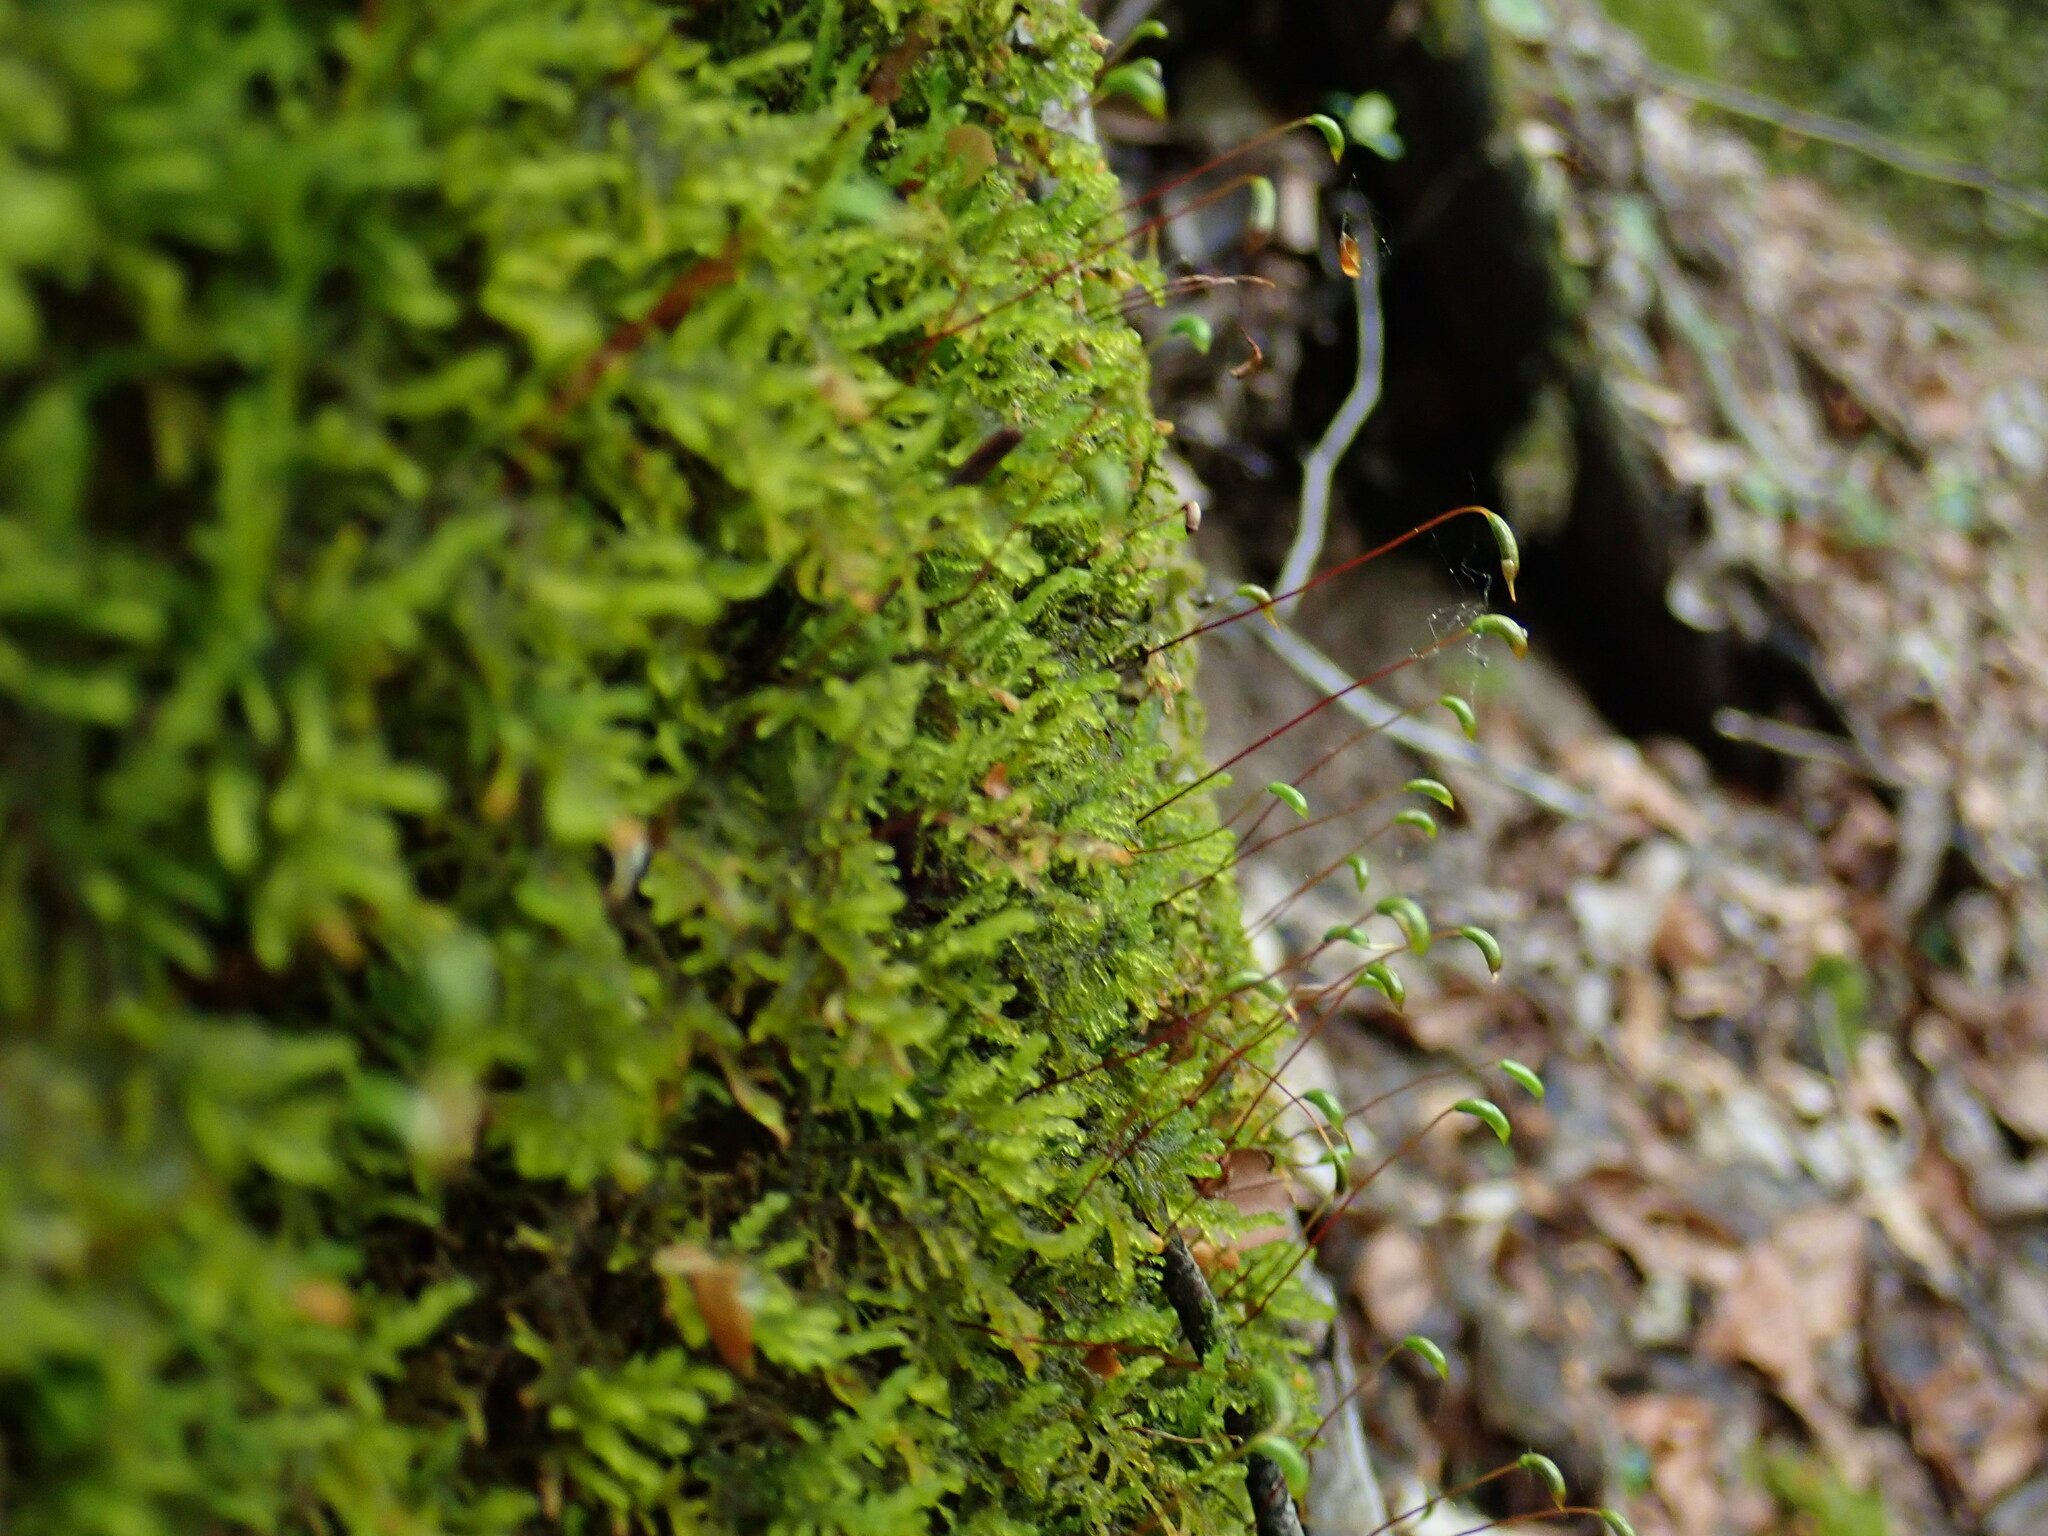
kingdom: Plantae
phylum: Bryophyta
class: Bryopsida
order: Hypnales
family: Amblystegiaceae
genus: Palustriella
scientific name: Palustriella commutata
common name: Curled hook-moss
